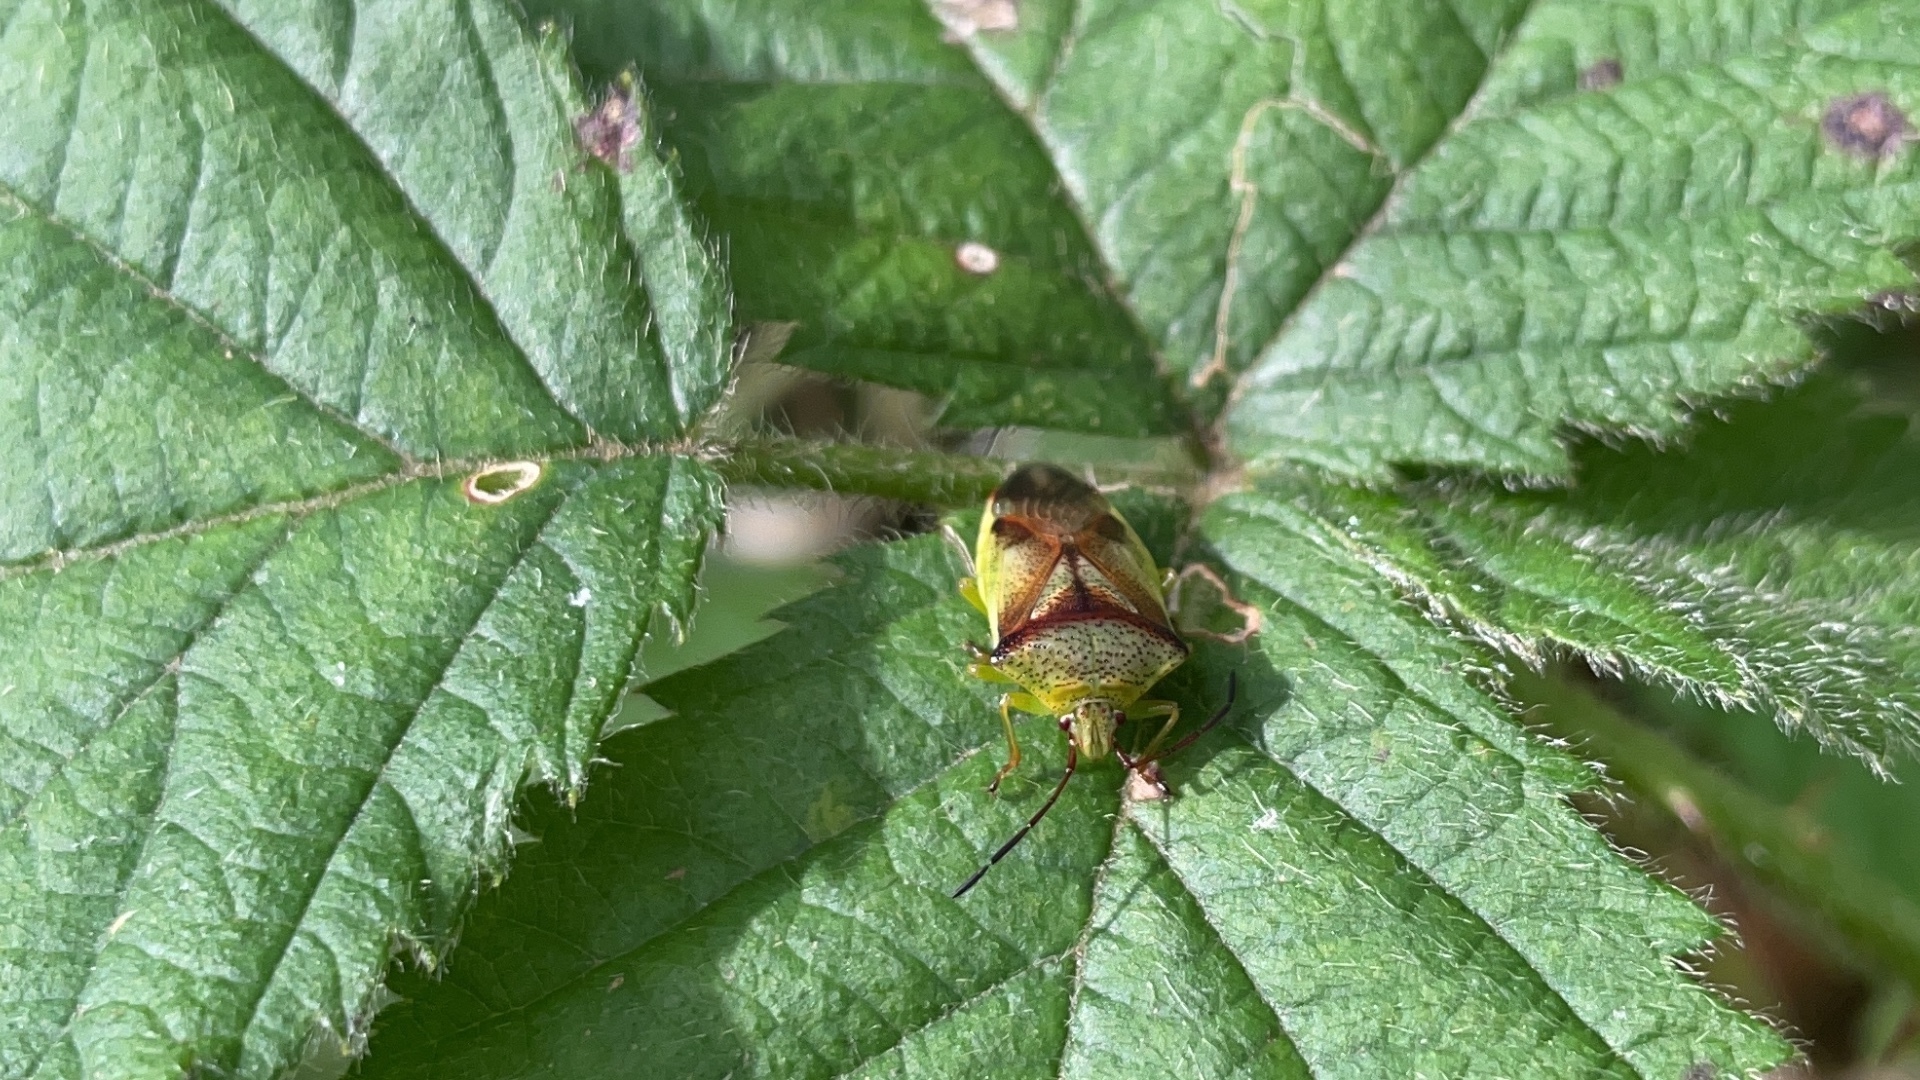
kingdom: Animalia
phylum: Arthropoda
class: Insecta
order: Hemiptera
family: Acanthosomatidae
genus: Elasmostethus
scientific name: Elasmostethus cruciatus
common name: Red-cross shield bug
